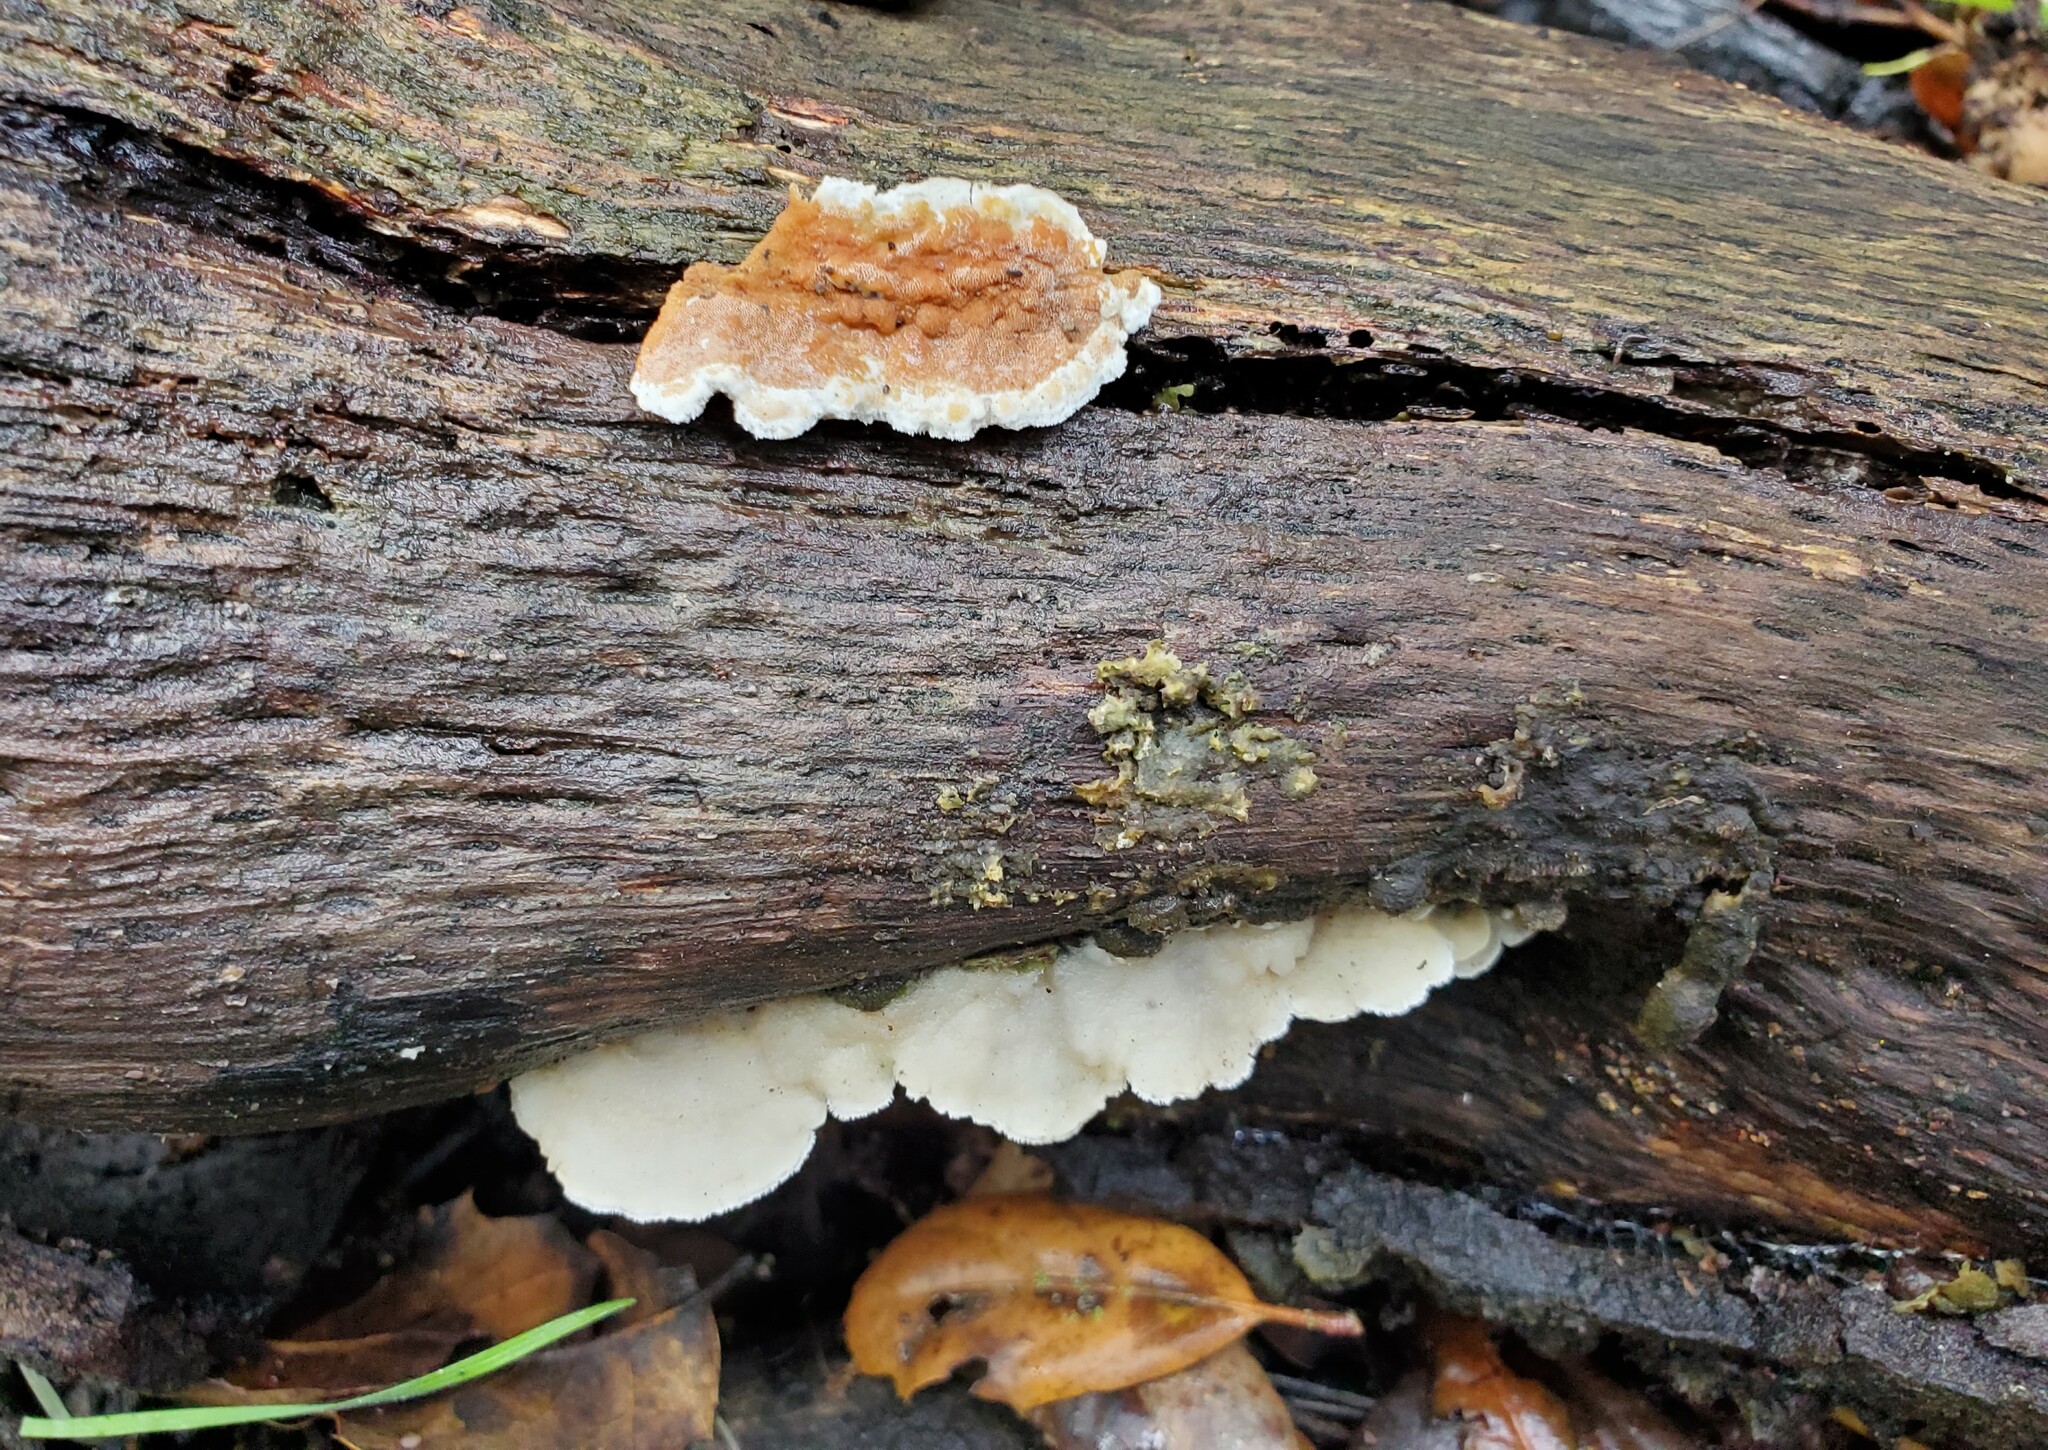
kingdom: Fungi
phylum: Basidiomycota
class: Agaricomycetes
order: Polyporales
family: Irpicaceae
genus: Vitreoporus
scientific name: Vitreoporus dichrous
